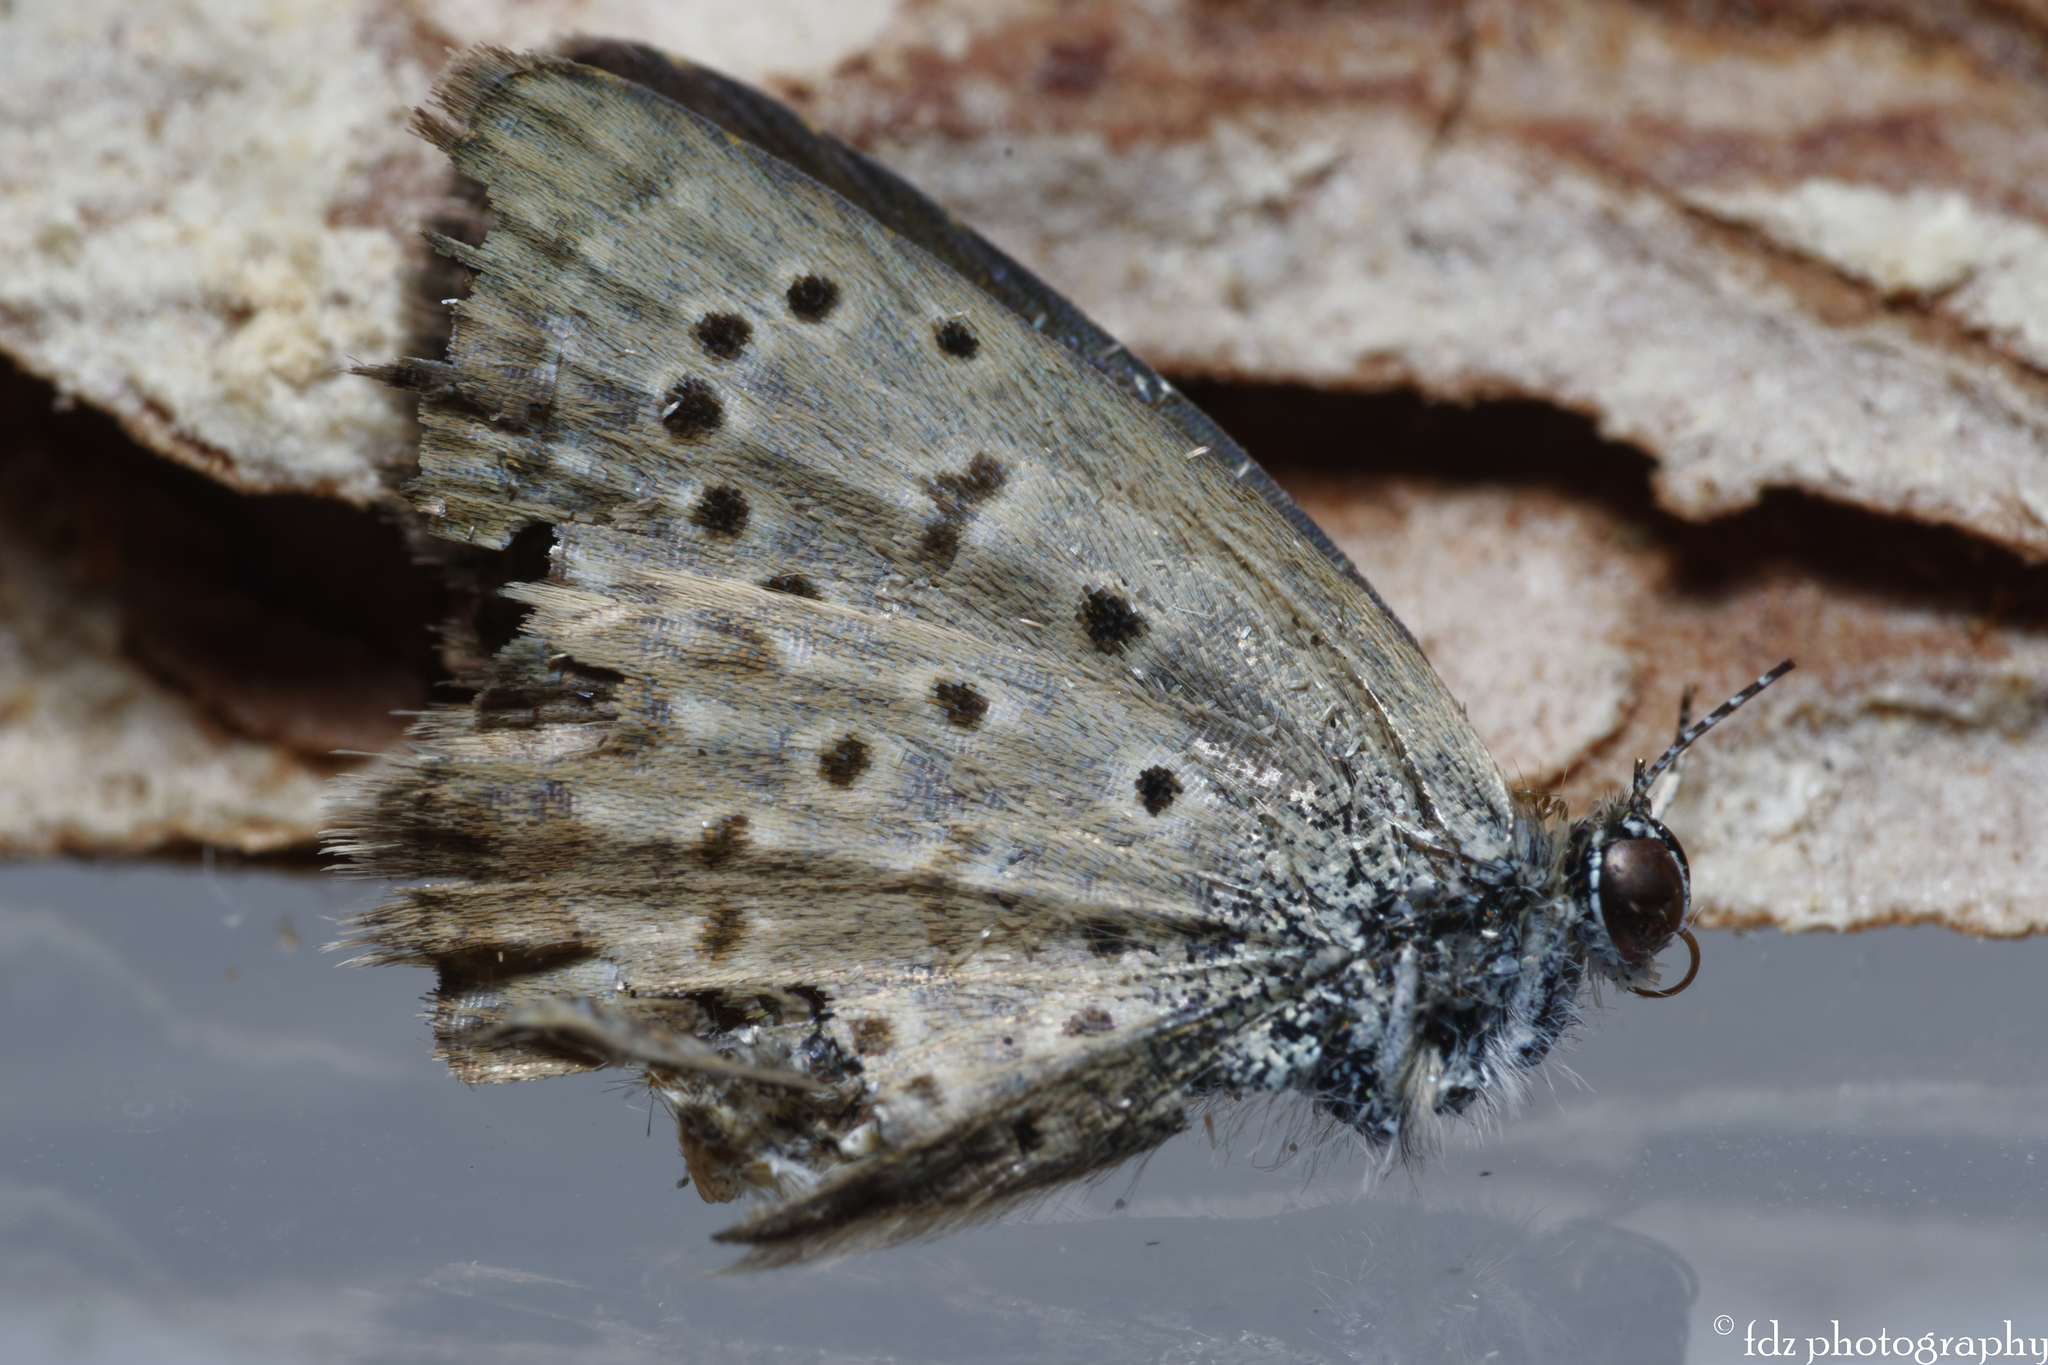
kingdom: Animalia
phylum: Arthropoda
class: Insecta
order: Lepidoptera
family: Lycaenidae
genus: Zizeeria
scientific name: Zizeeria knysna
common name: African grass blue
